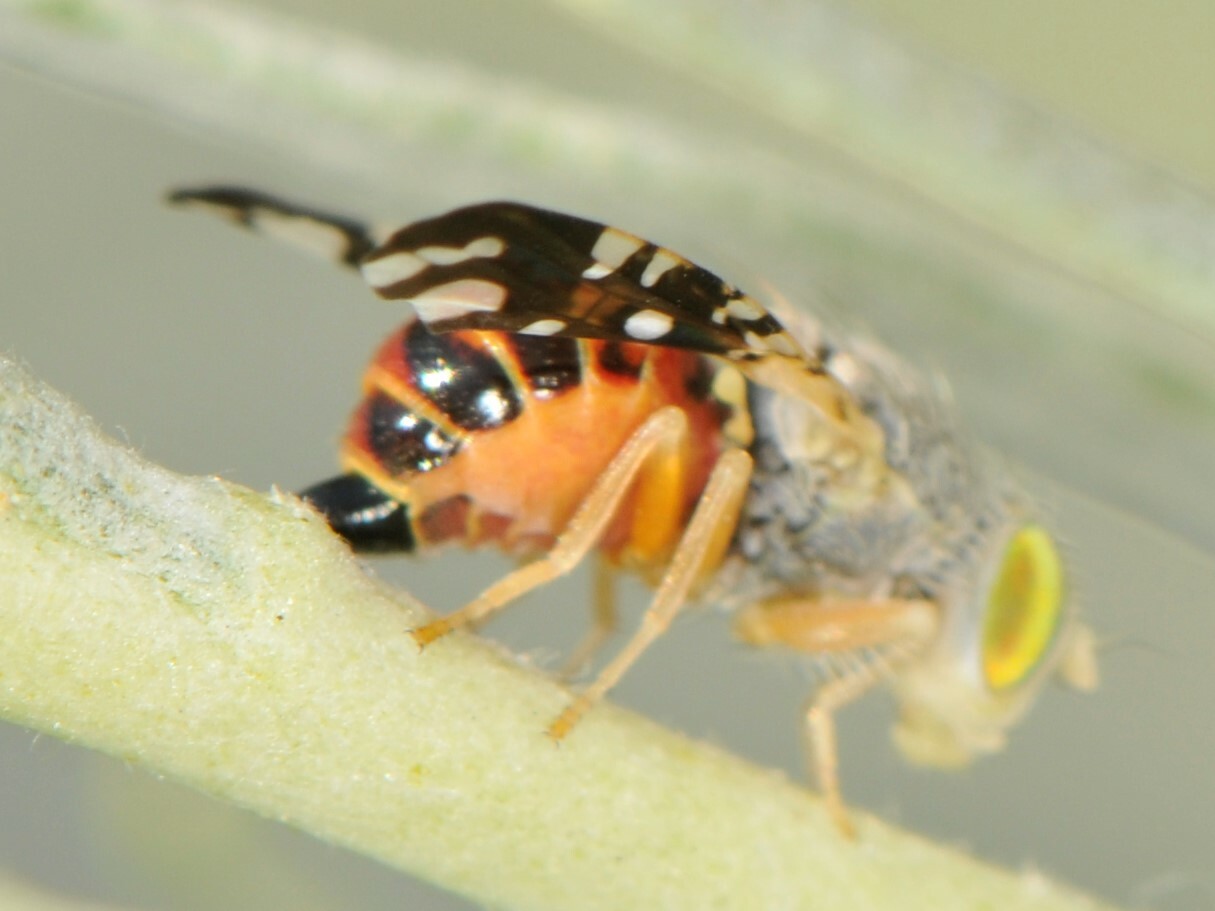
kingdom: Animalia
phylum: Arthropoda
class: Insecta
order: Diptera
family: Tephritidae
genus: Aciurina
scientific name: Aciurina trixa
